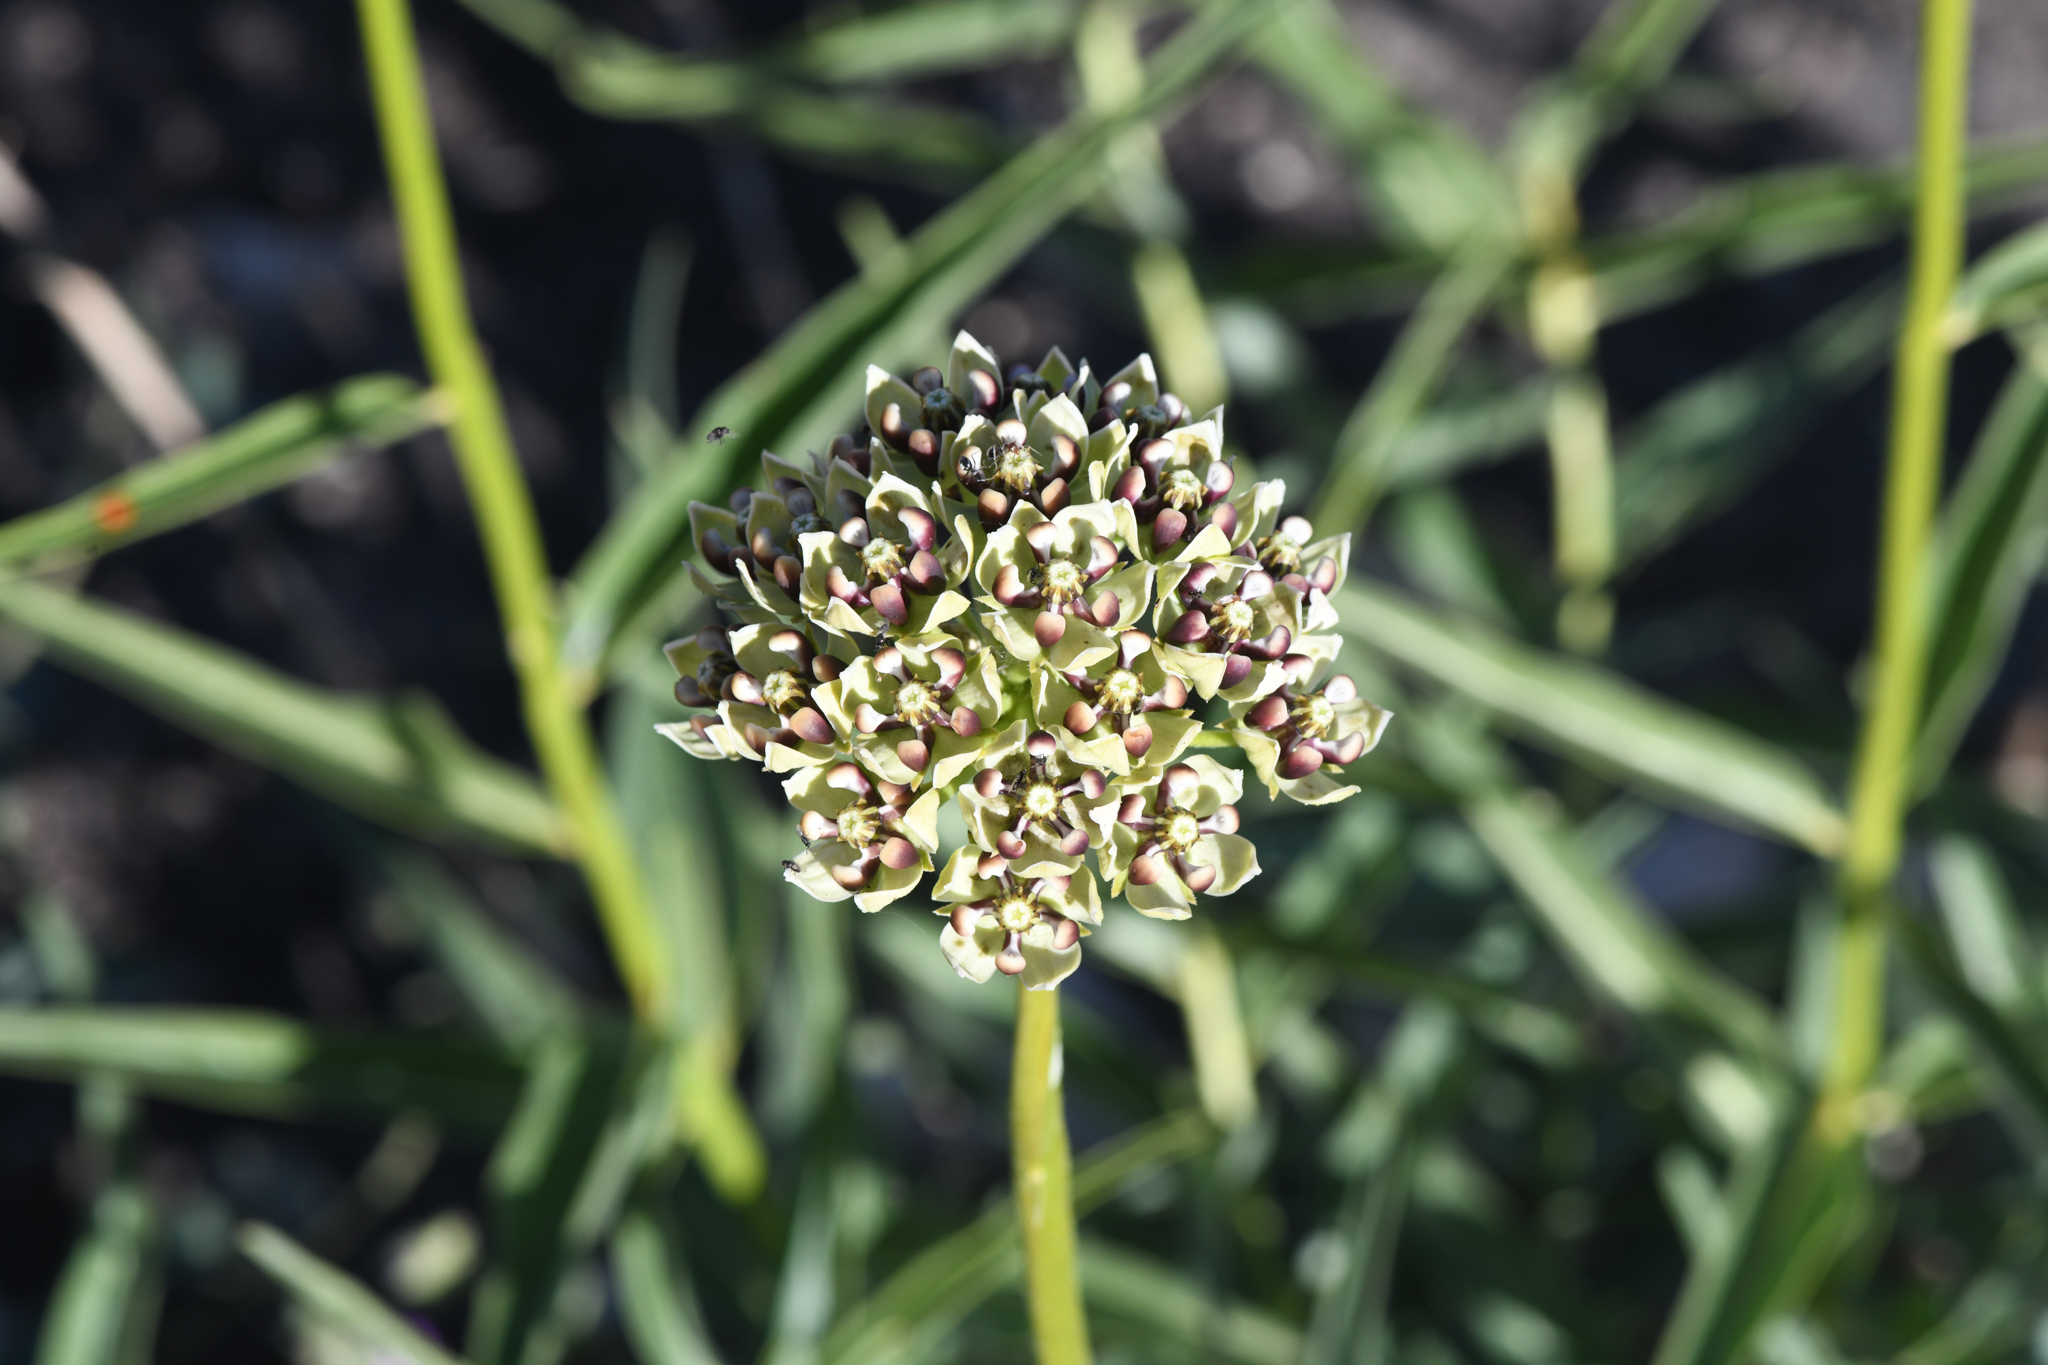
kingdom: Plantae
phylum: Tracheophyta
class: Magnoliopsida
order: Gentianales
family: Apocynaceae
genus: Asclepias
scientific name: Asclepias asperula
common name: Antelope horns
